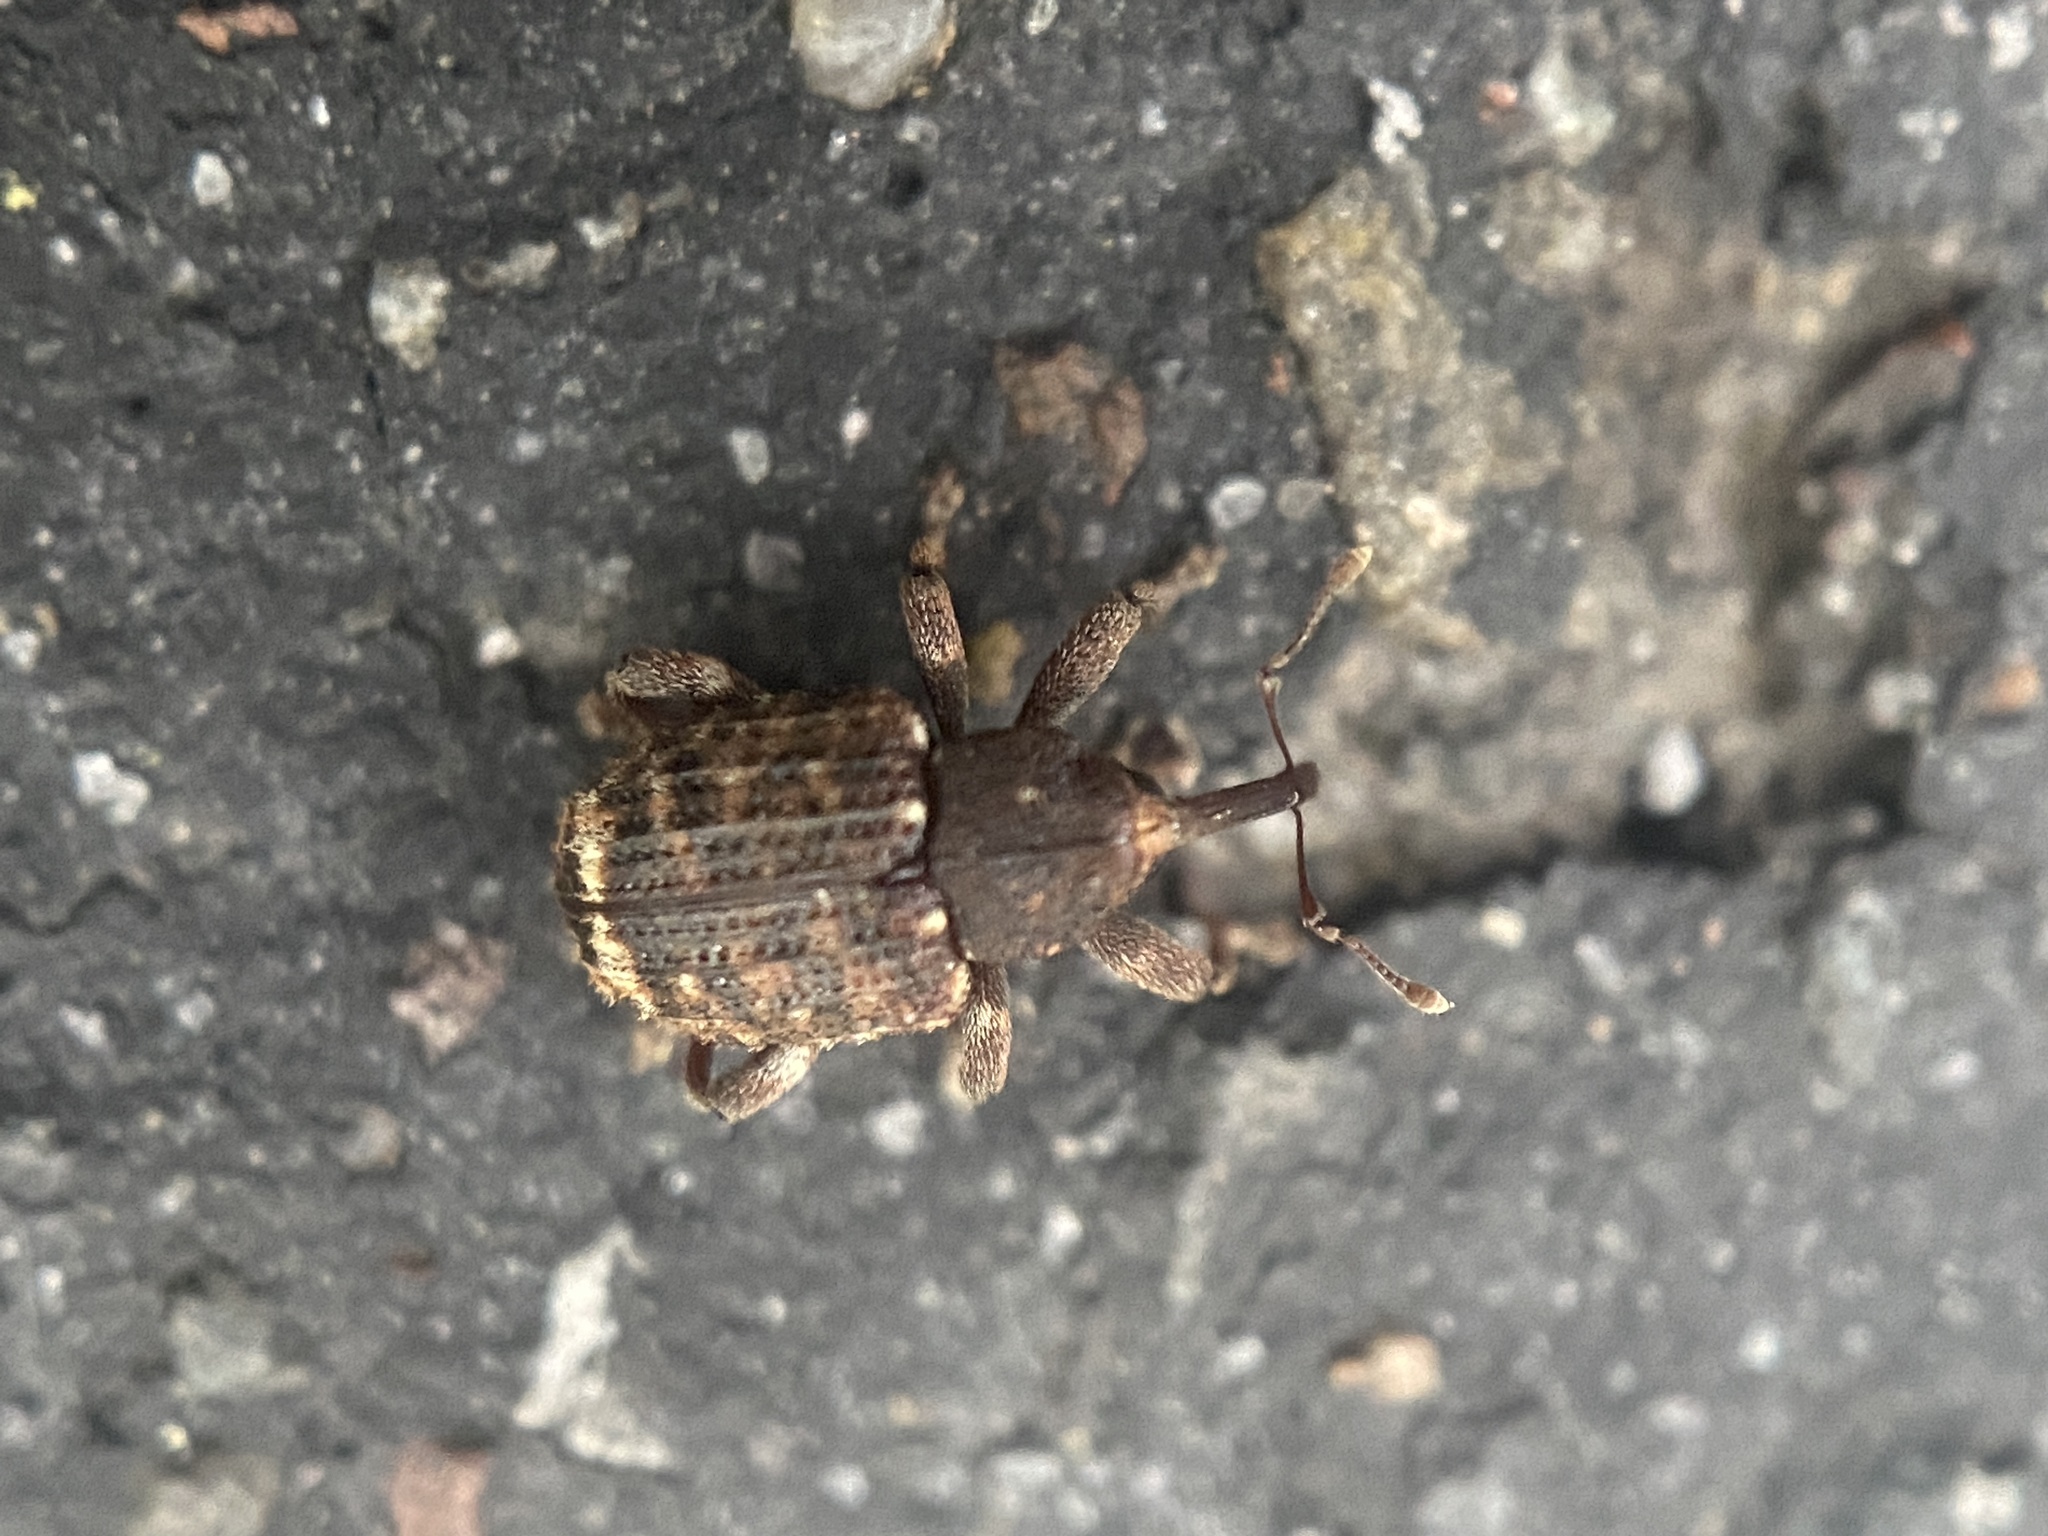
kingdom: Animalia
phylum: Arthropoda
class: Insecta
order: Coleoptera
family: Curculionidae
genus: Conotrachelus
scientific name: Conotrachelus posticatus
